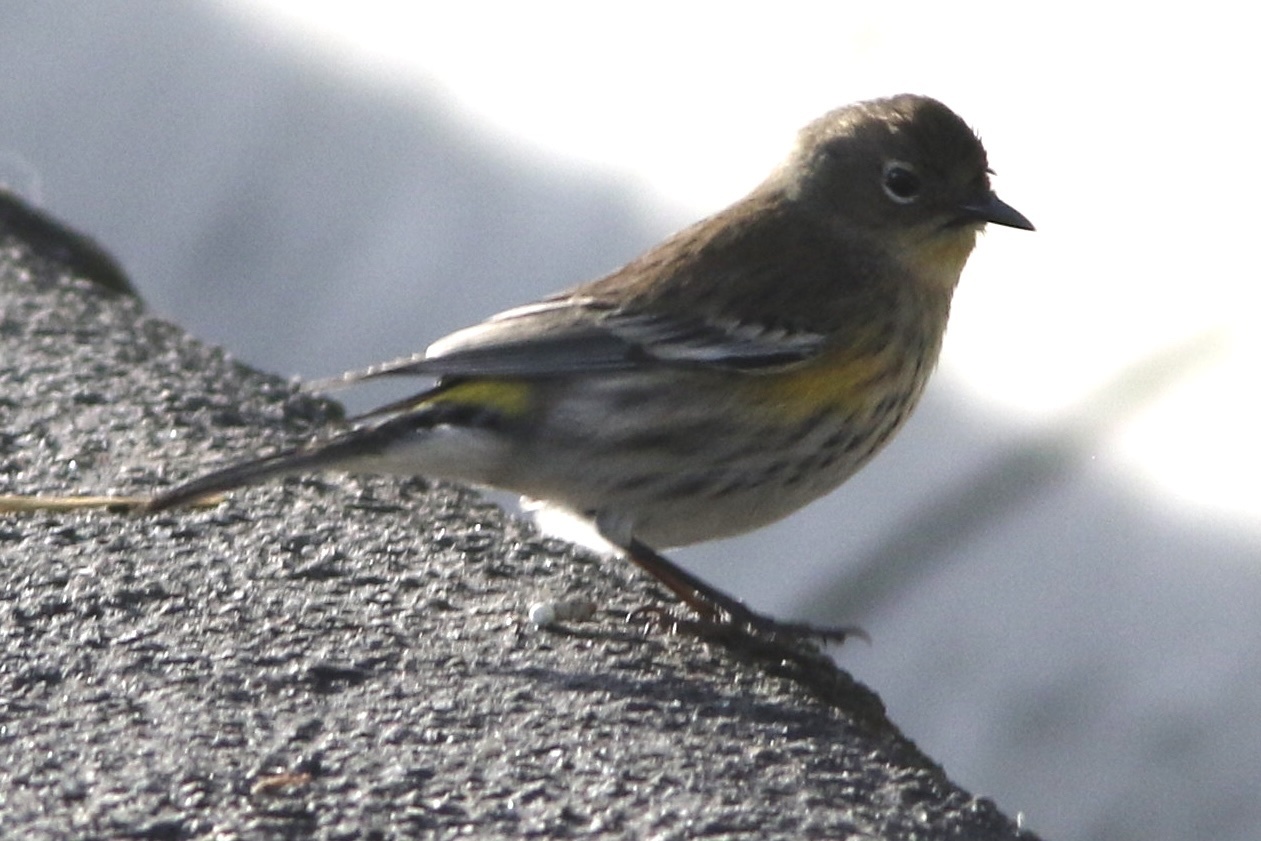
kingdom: Animalia
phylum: Chordata
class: Aves
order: Passeriformes
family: Parulidae
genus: Setophaga
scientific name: Setophaga coronata
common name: Myrtle warbler
